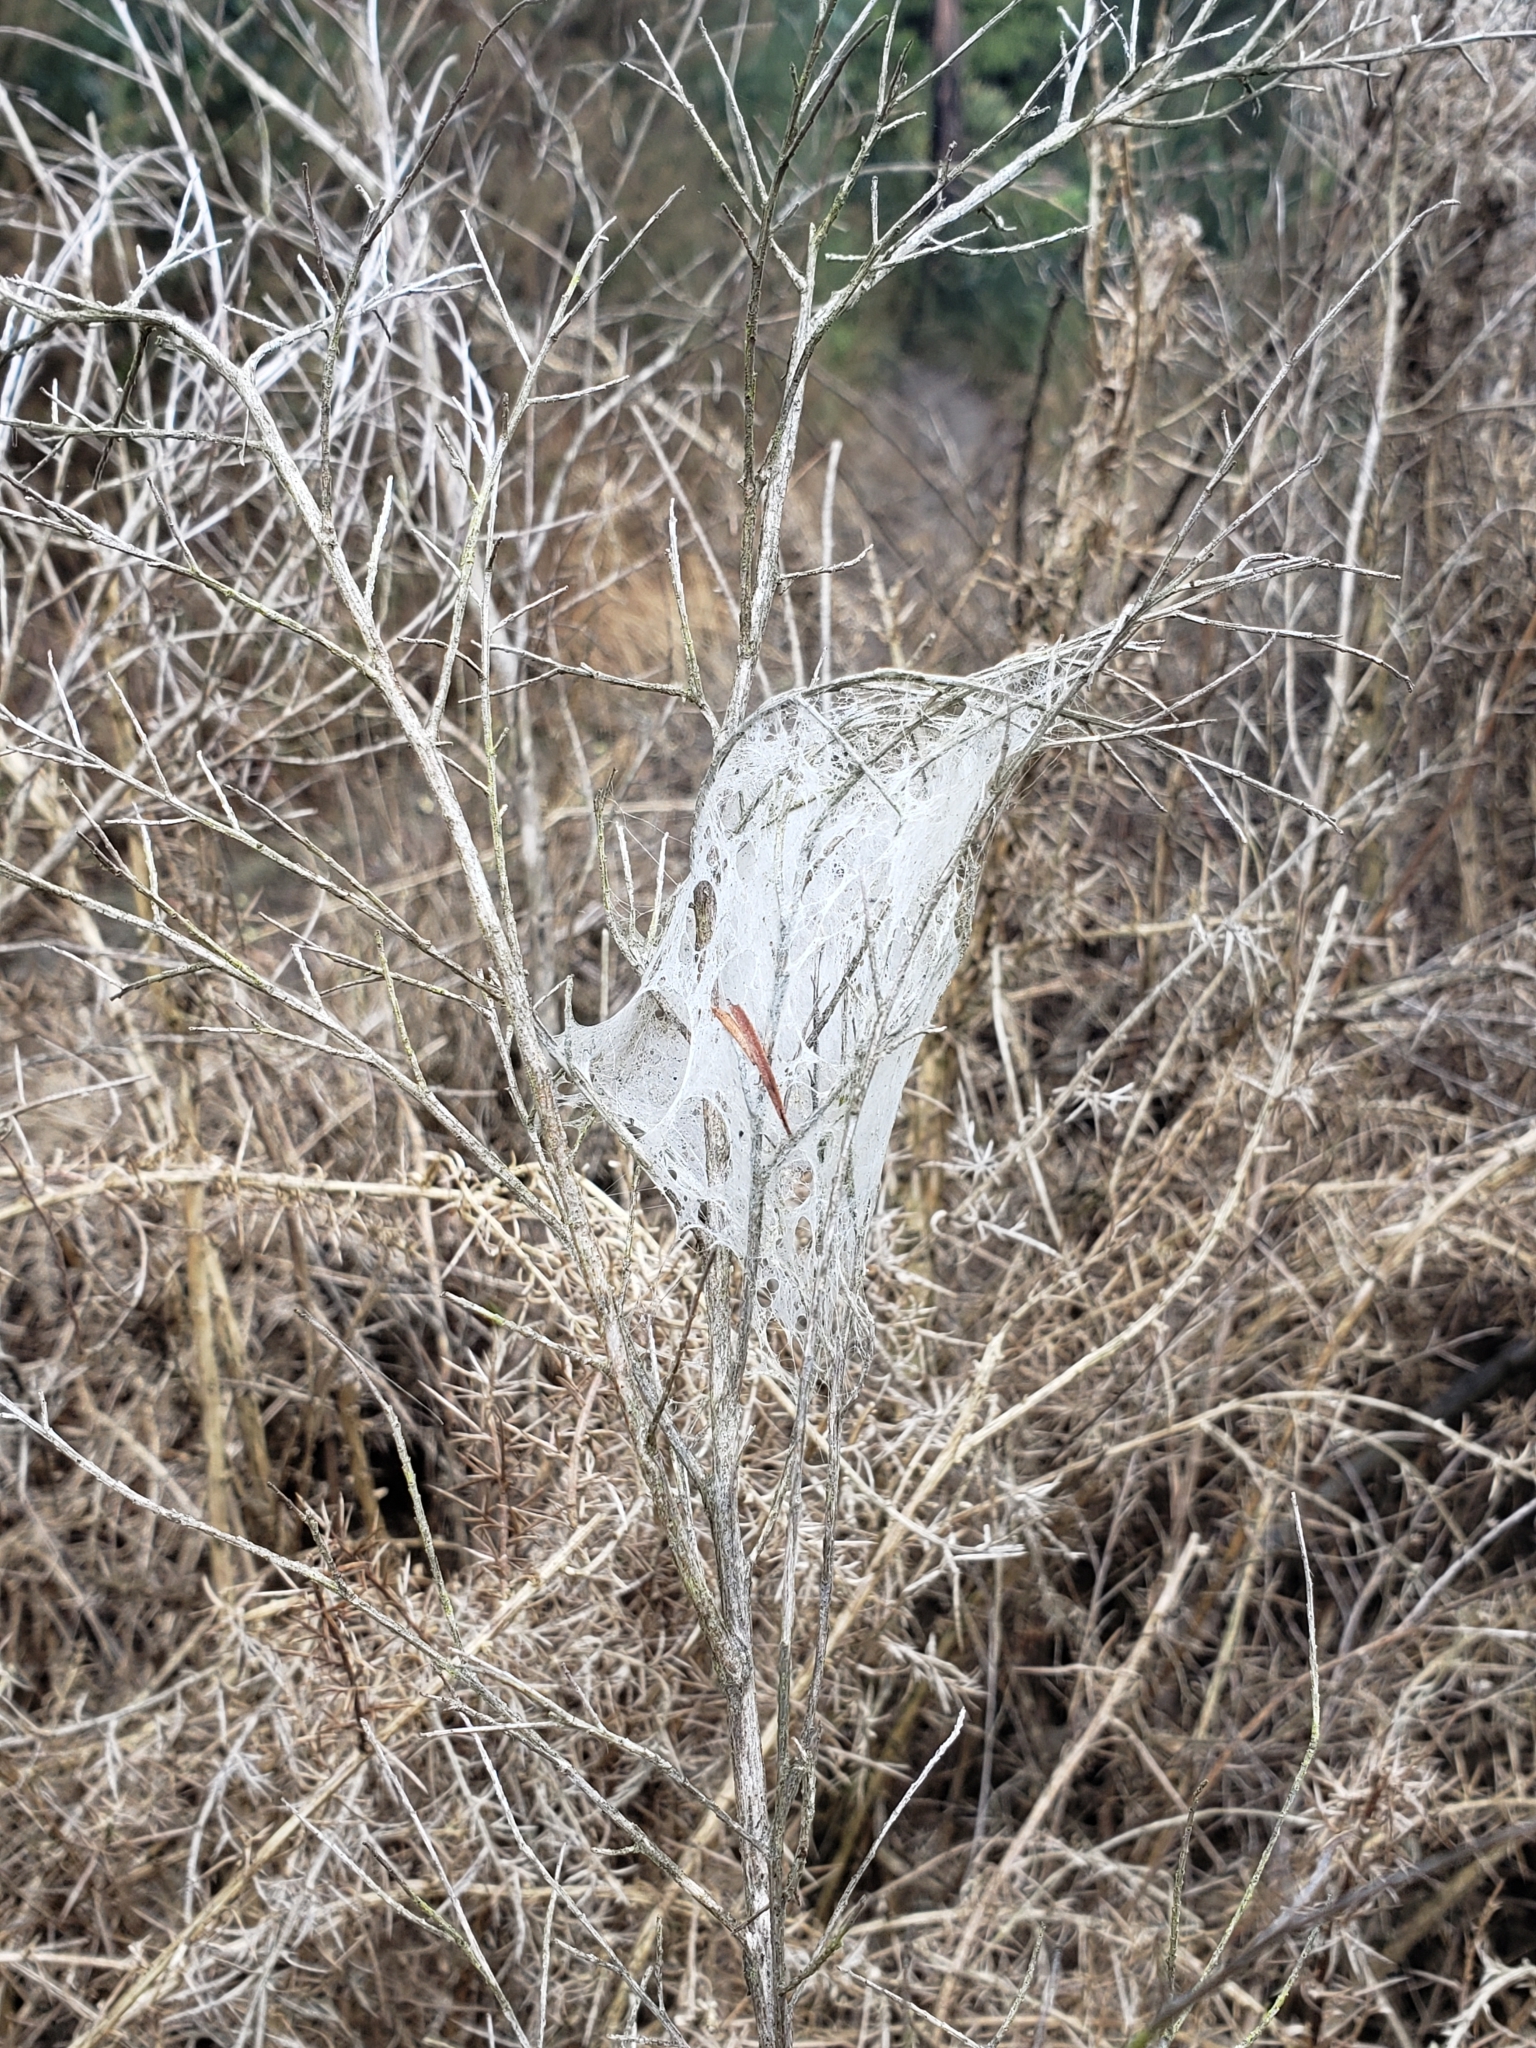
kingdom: Animalia
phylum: Arthropoda
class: Arachnida
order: Araneae
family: Pisauridae
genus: Dolomedes
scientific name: Dolomedes minor
